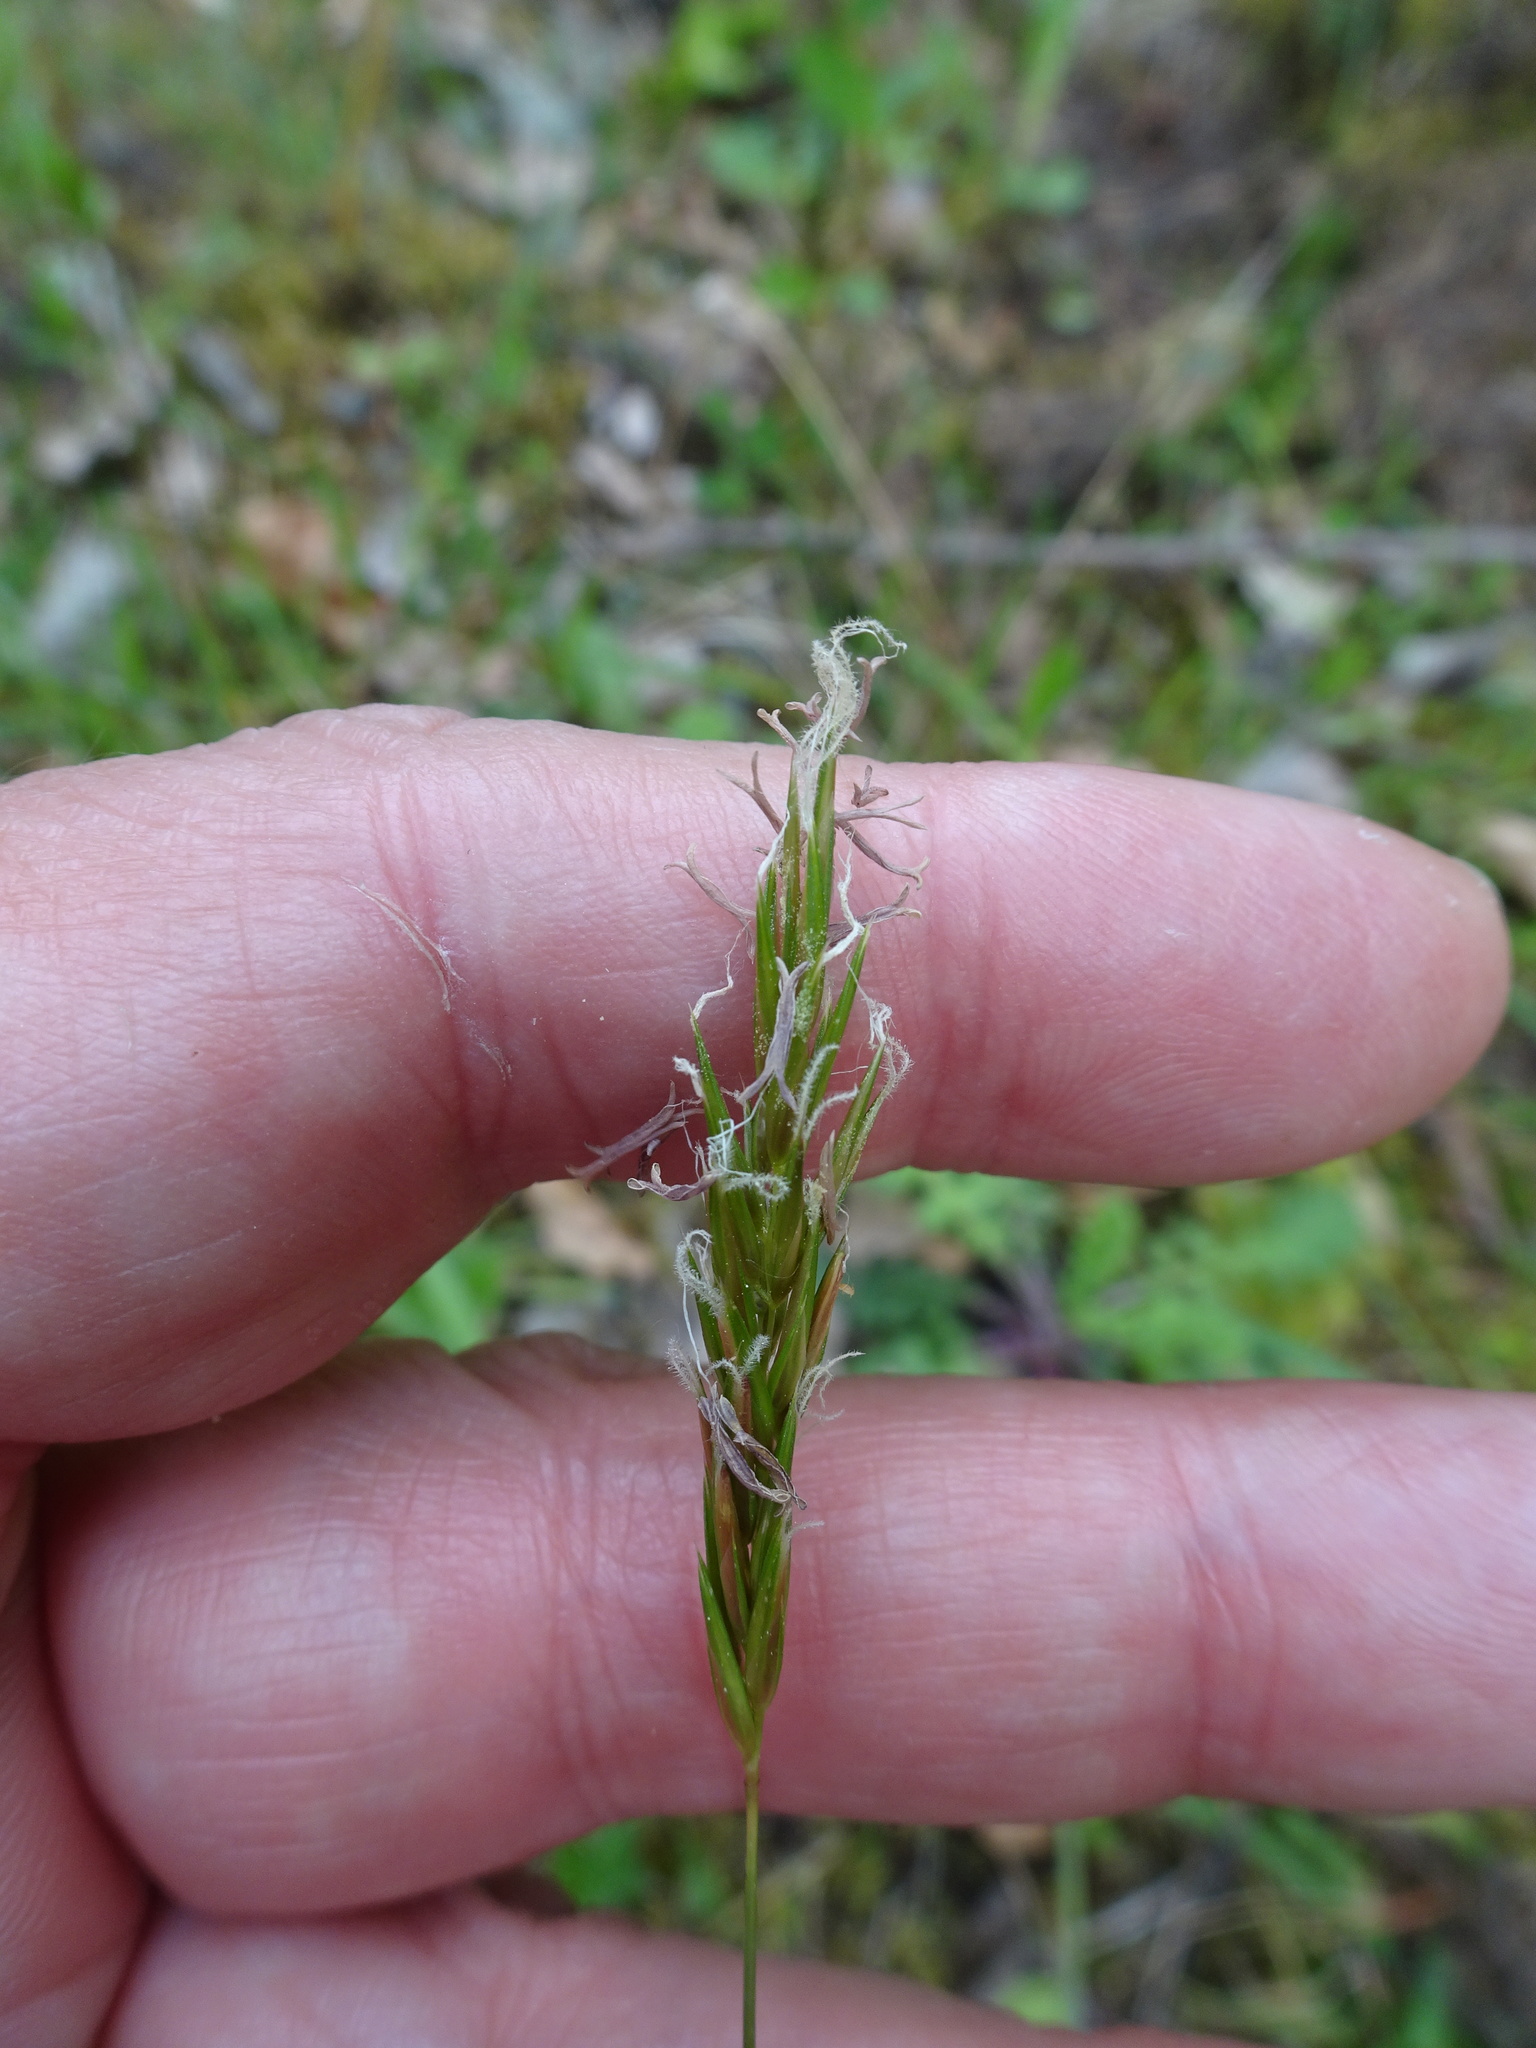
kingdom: Plantae
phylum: Tracheophyta
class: Liliopsida
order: Poales
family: Poaceae
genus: Anthoxanthum
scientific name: Anthoxanthum odoratum
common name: Sweet vernalgrass
